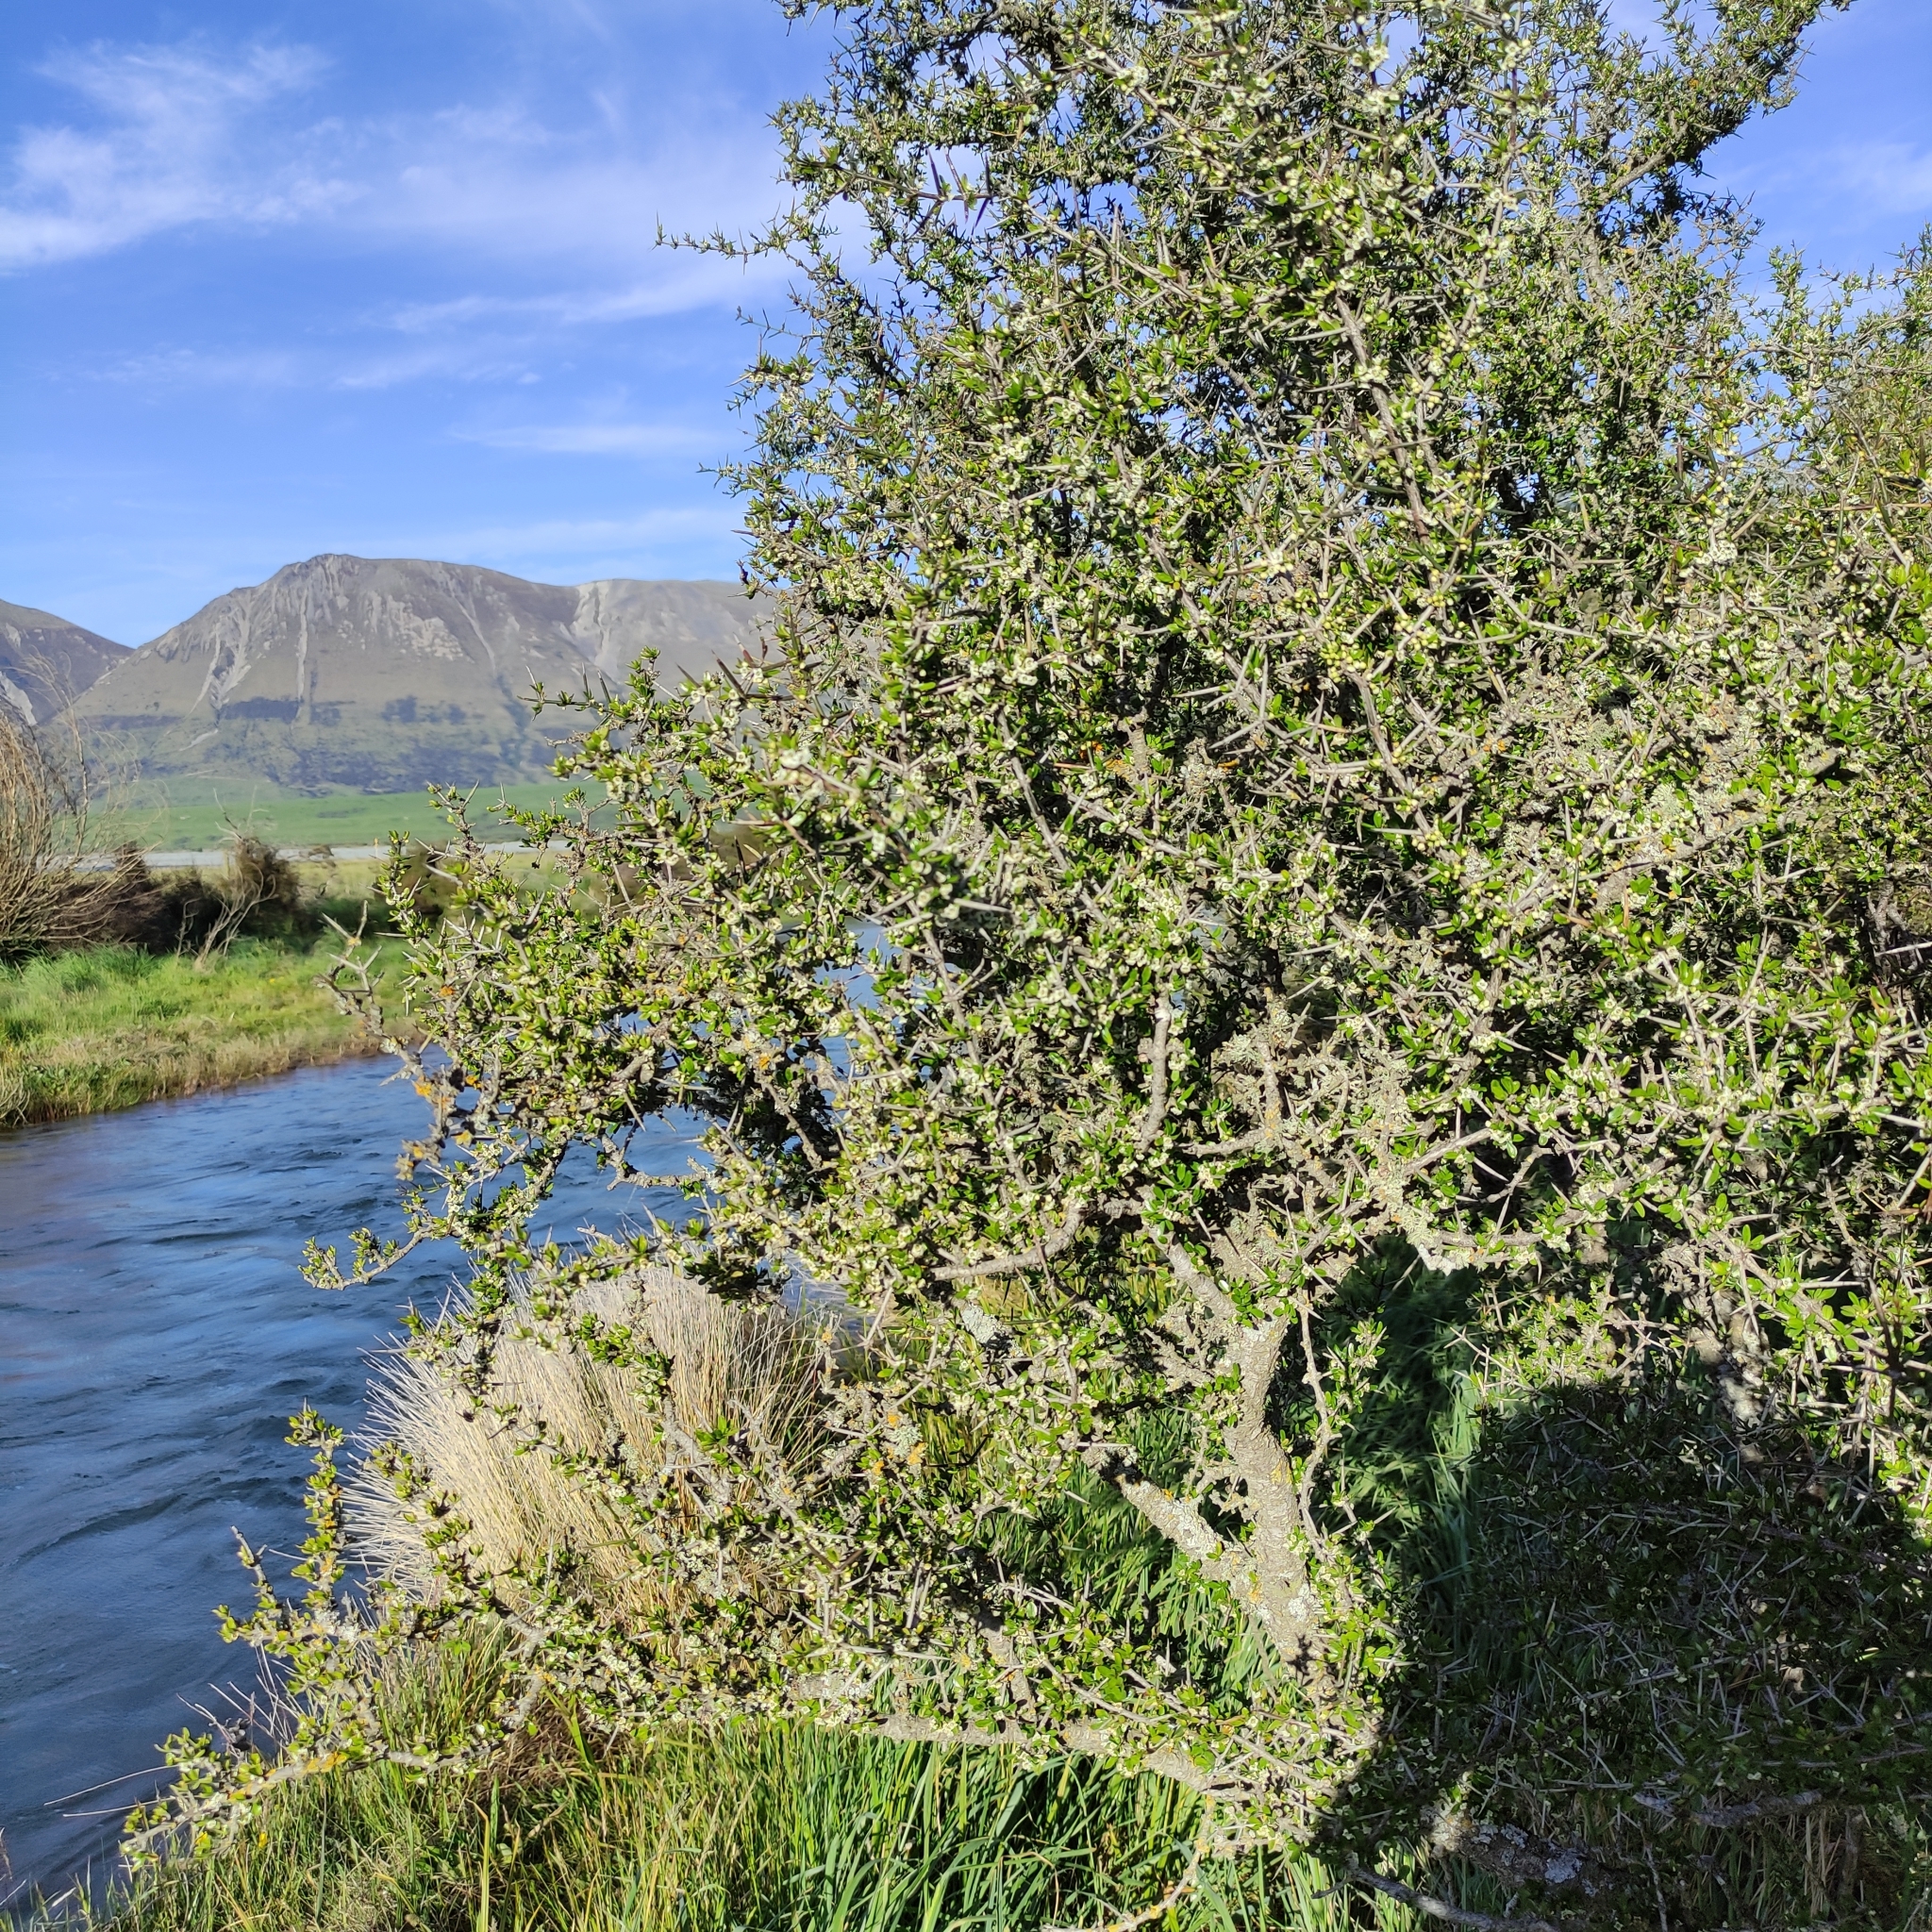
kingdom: Plantae
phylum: Tracheophyta
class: Magnoliopsida
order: Rosales
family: Rhamnaceae
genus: Discaria
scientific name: Discaria toumatou
